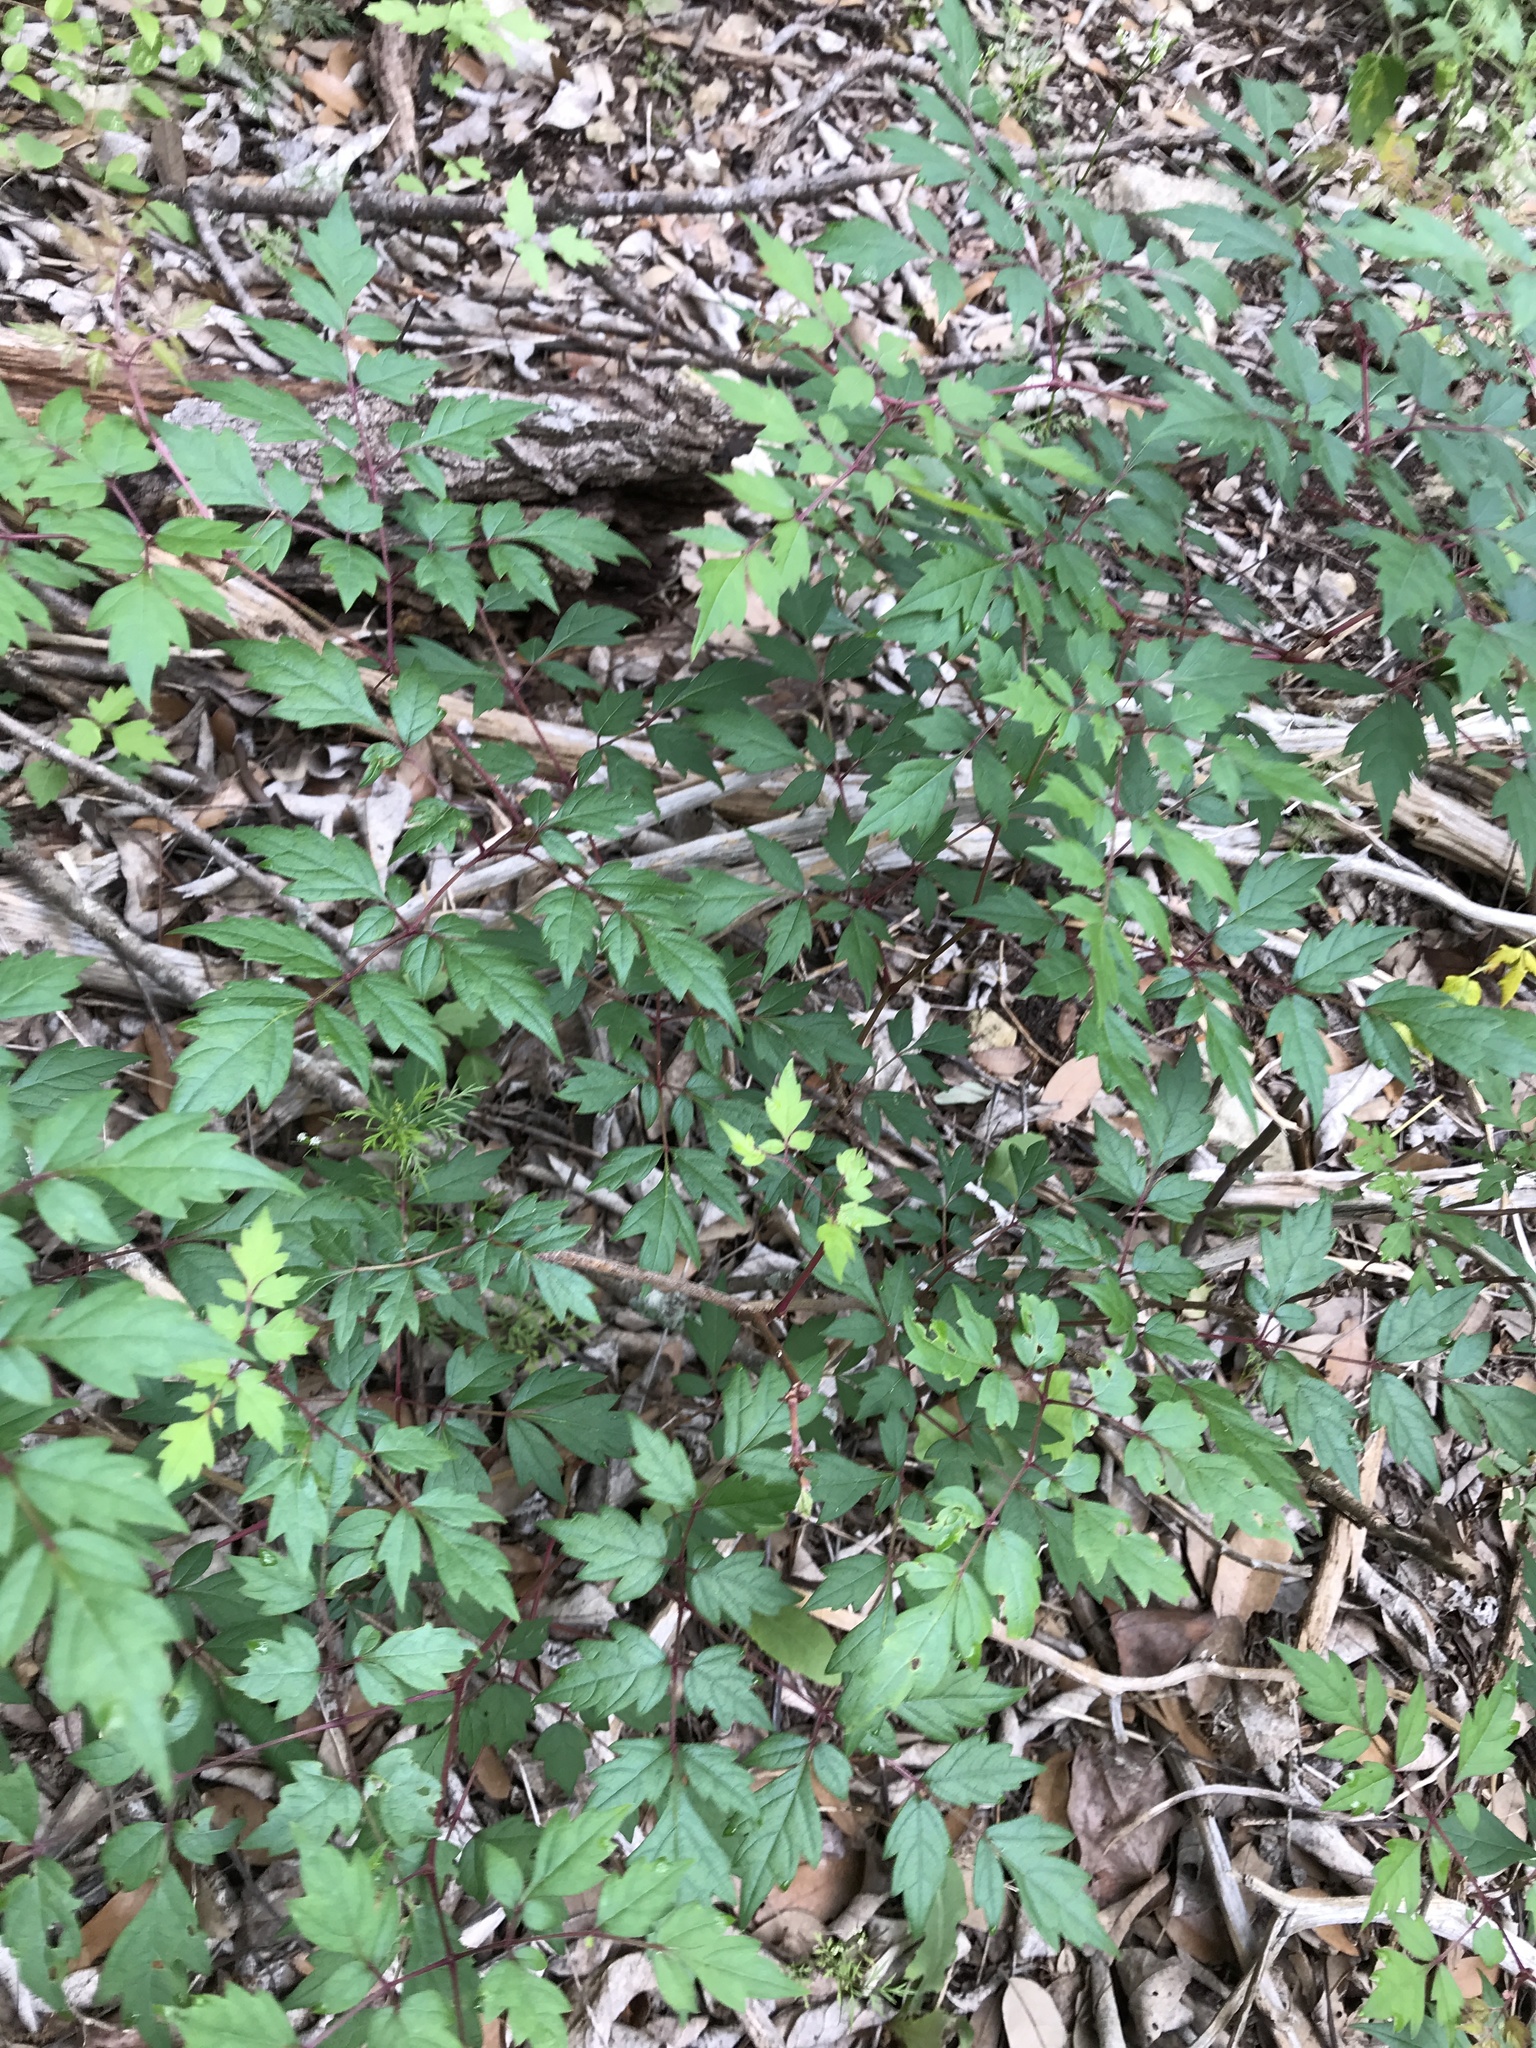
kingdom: Plantae
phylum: Tracheophyta
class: Magnoliopsida
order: Vitales
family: Vitaceae
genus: Nekemias
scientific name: Nekemias arborea
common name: Peppervine
